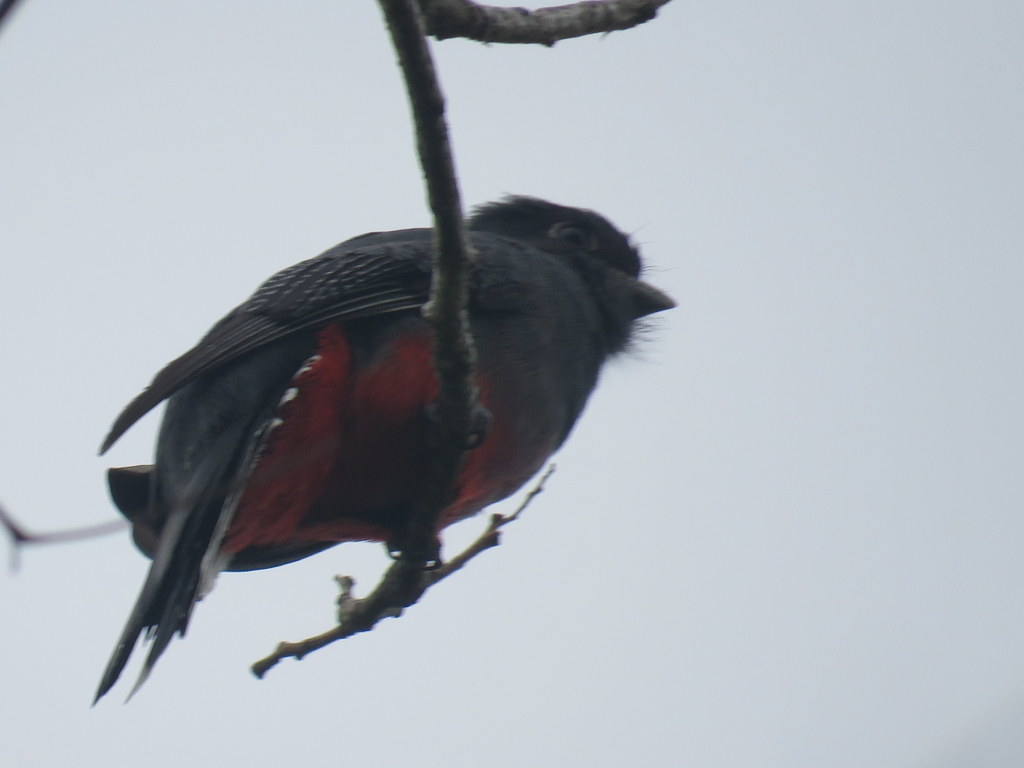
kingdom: Animalia
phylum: Chordata
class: Aves
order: Trogoniformes
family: Trogonidae
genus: Trogon
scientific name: Trogon surrucura
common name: Surucua trogon
